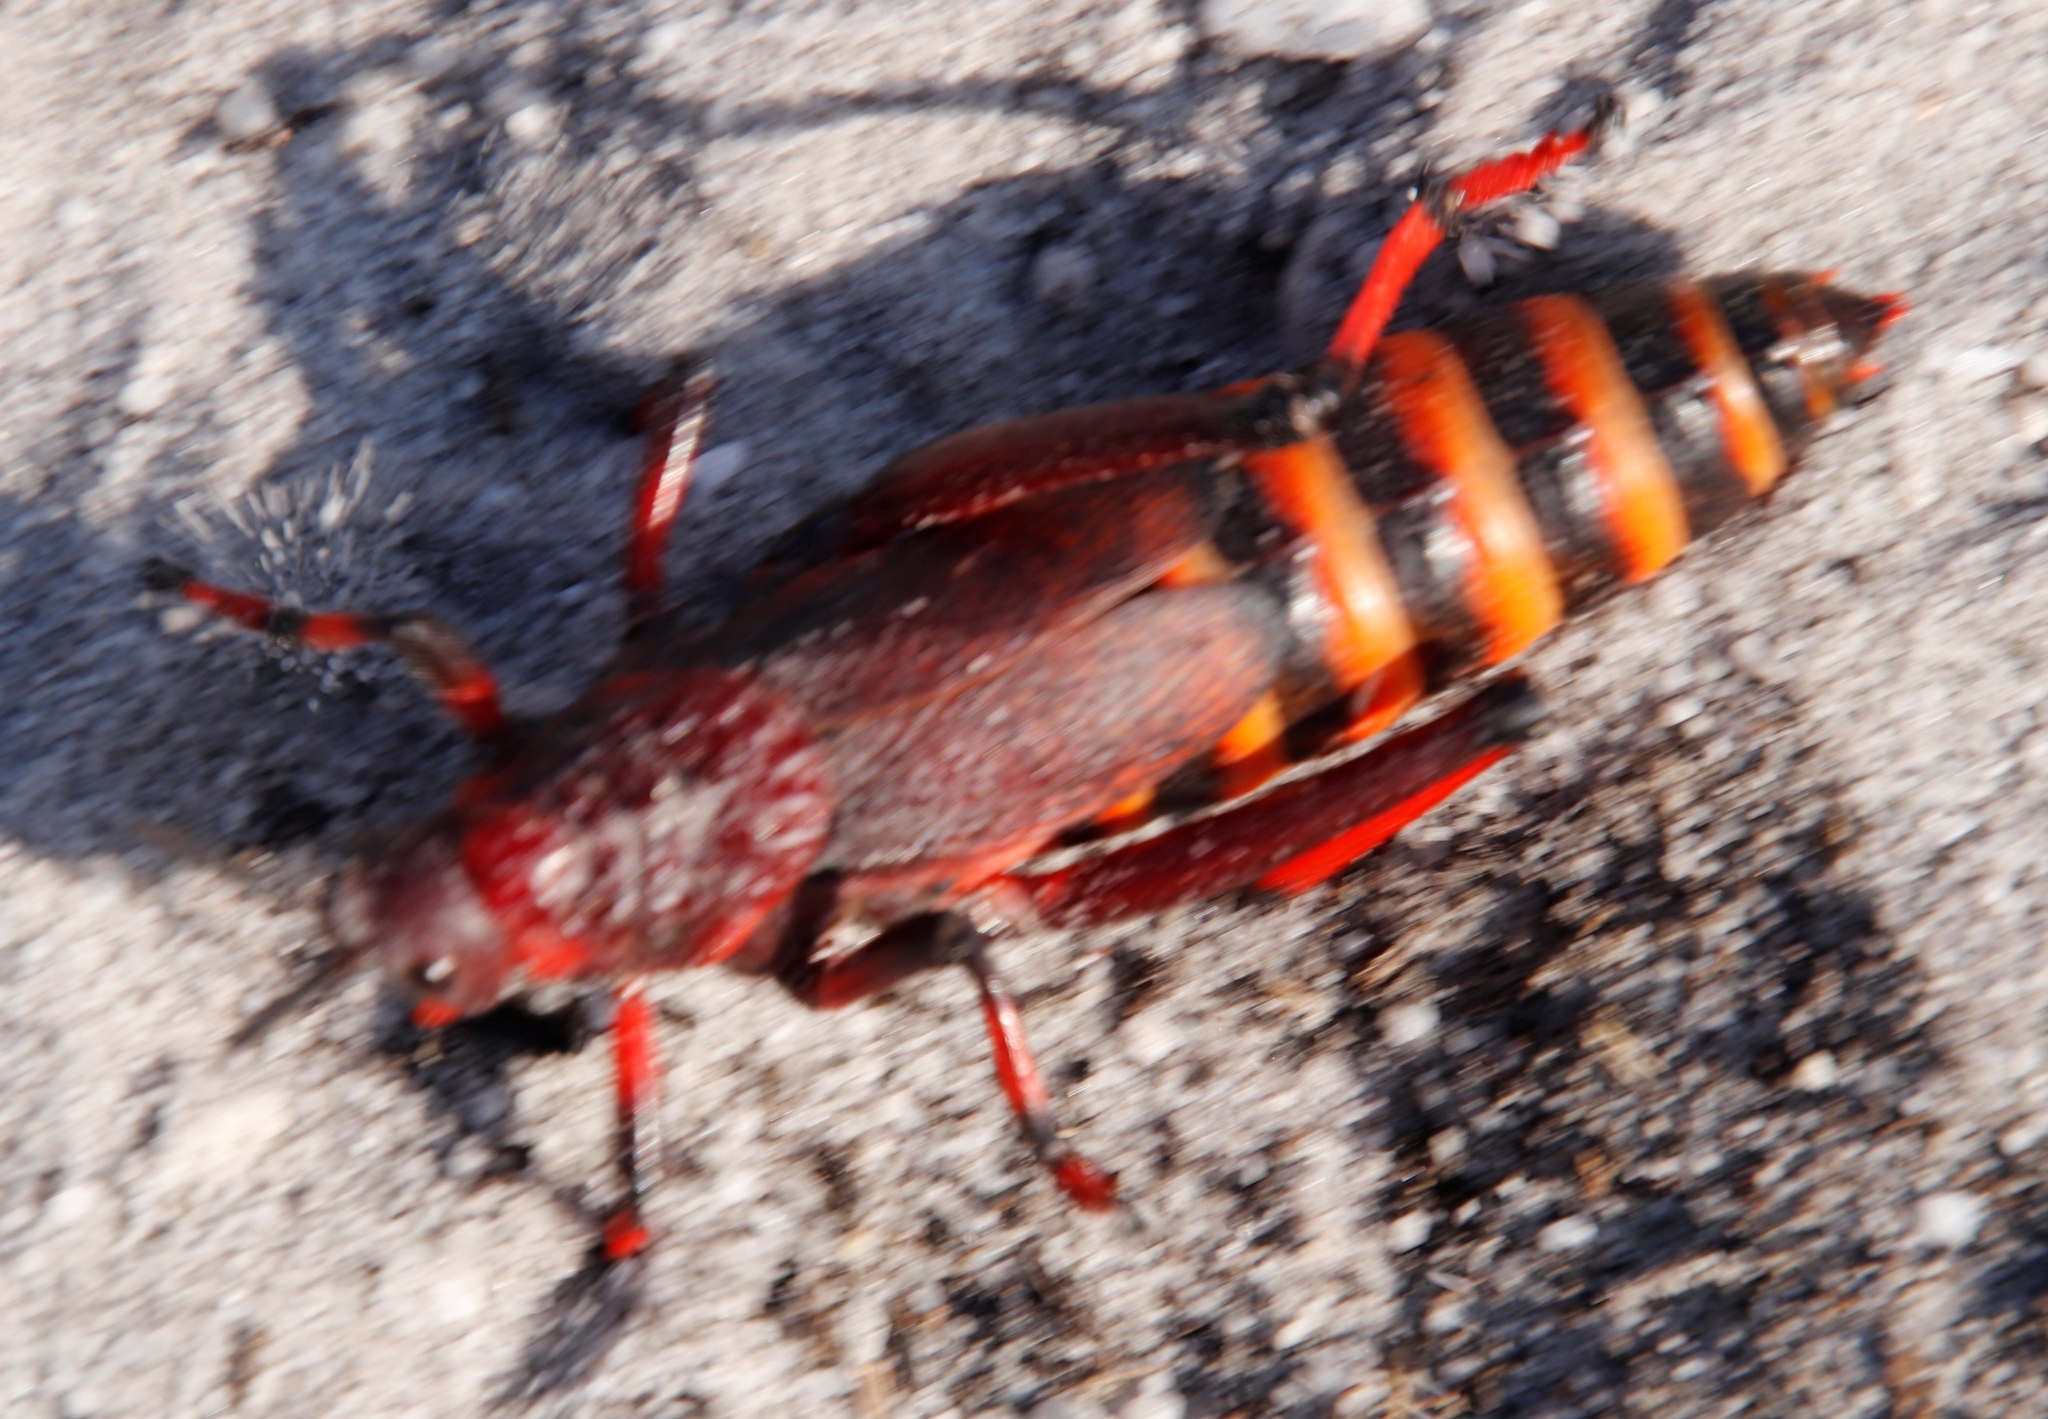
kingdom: Animalia
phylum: Arthropoda
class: Insecta
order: Orthoptera
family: Pyrgomorphidae
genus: Dictyophorus
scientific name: Dictyophorus spumans
